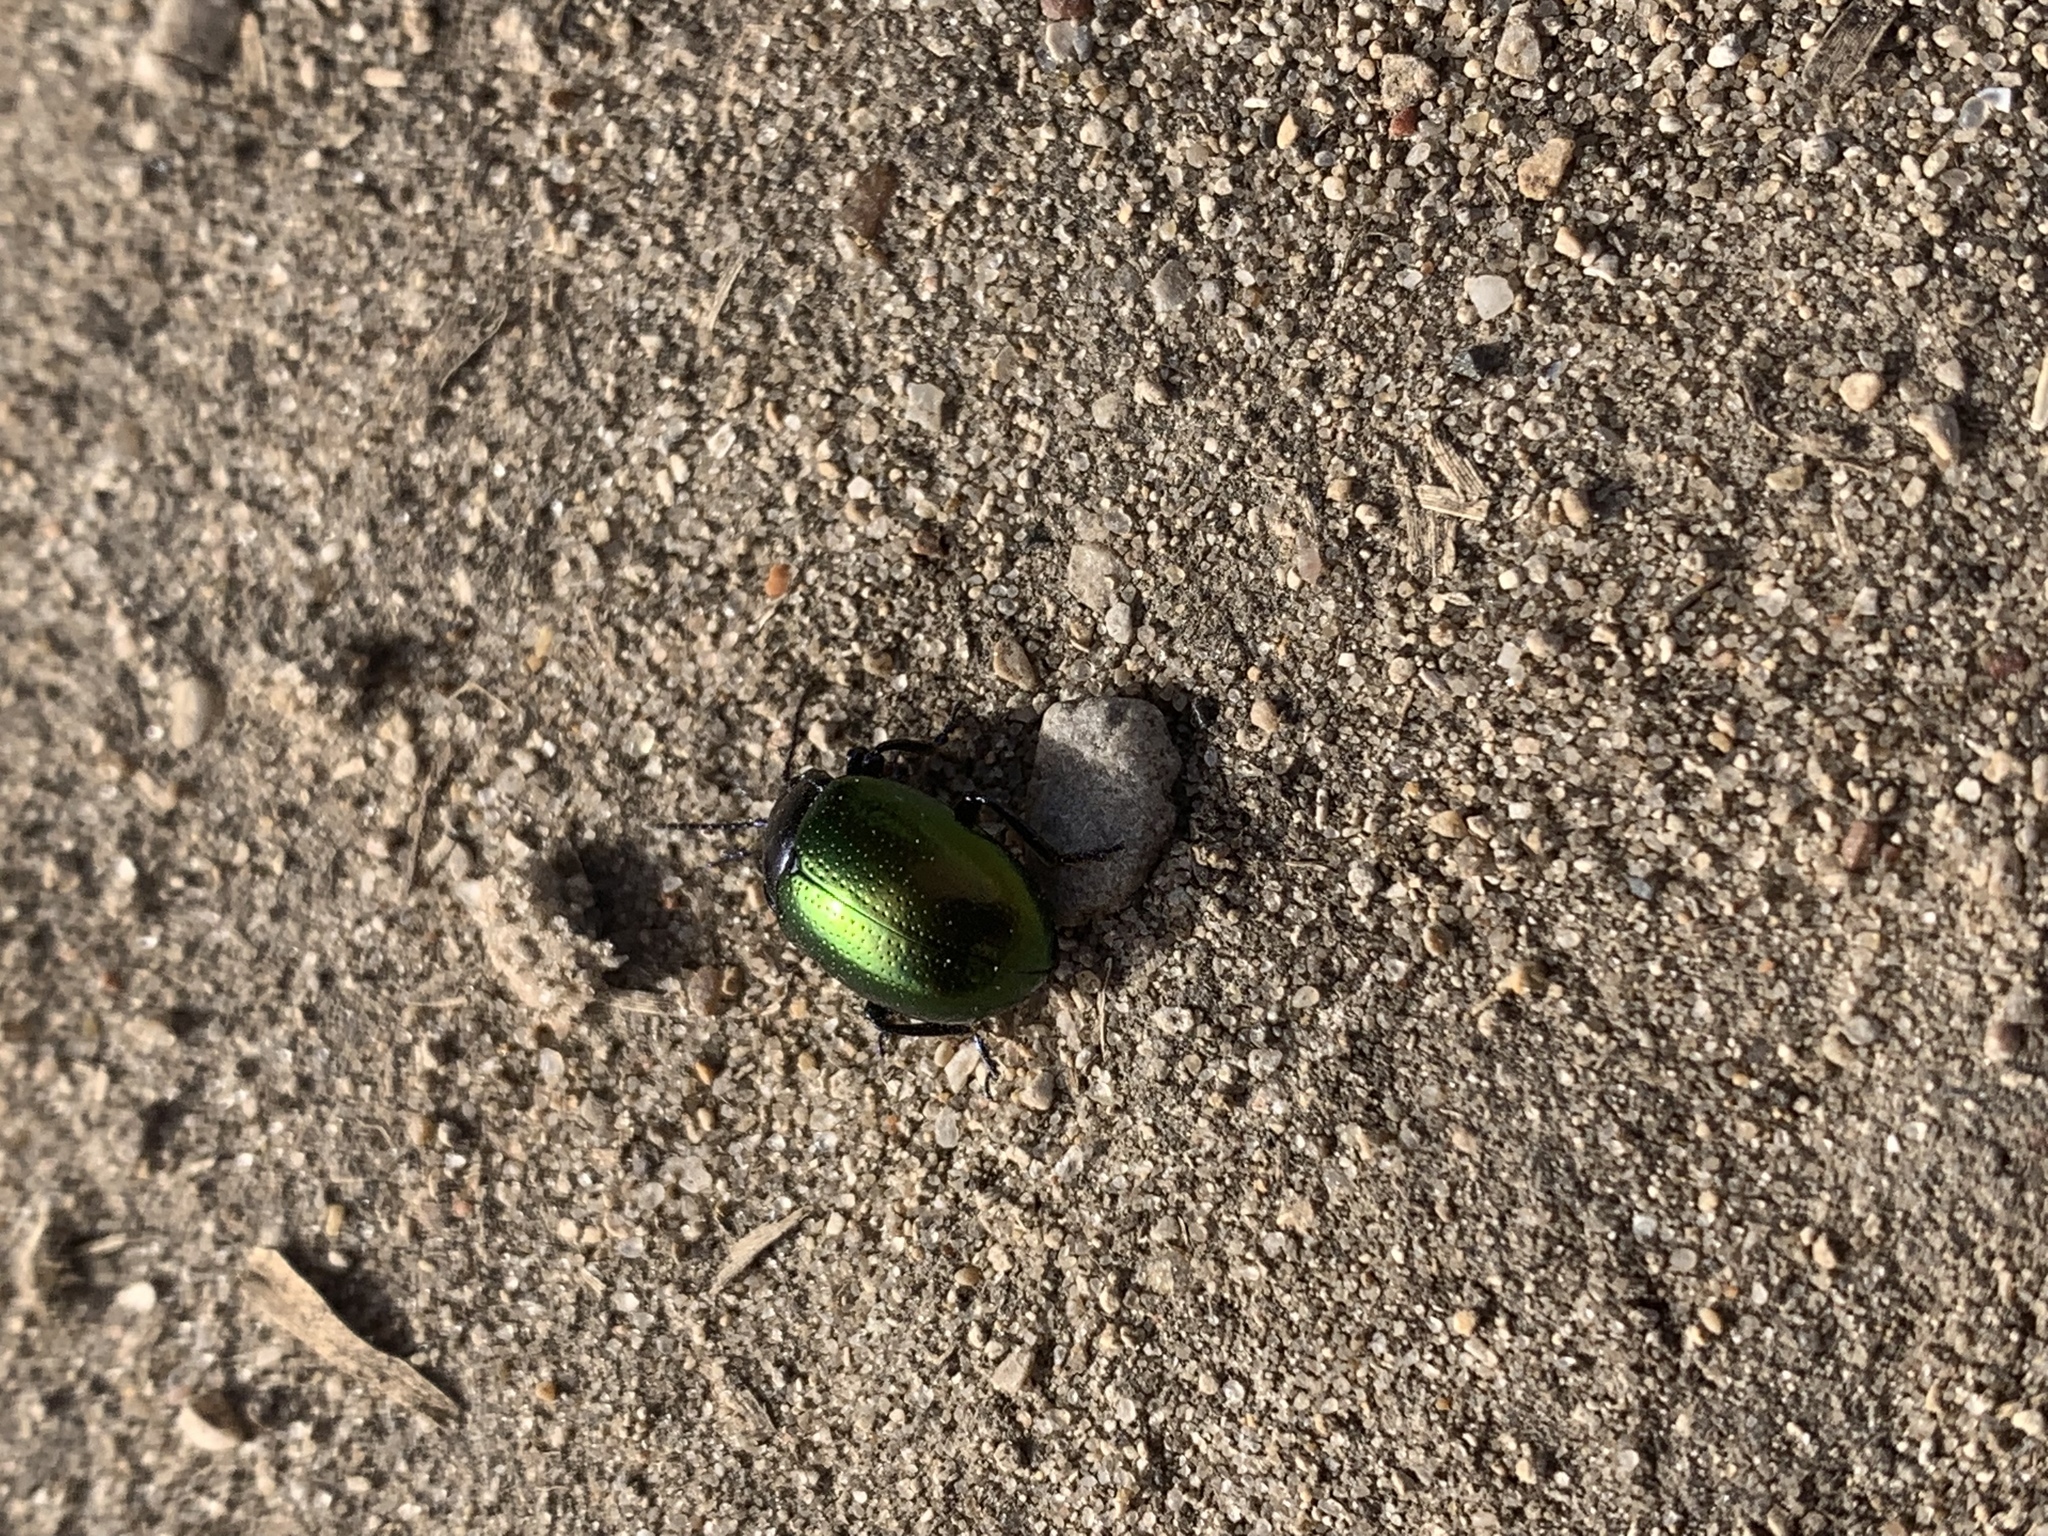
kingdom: Animalia
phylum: Arthropoda
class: Insecta
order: Coleoptera
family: Chrysomelidae
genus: Chrysolina
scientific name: Chrysolina auripennis
